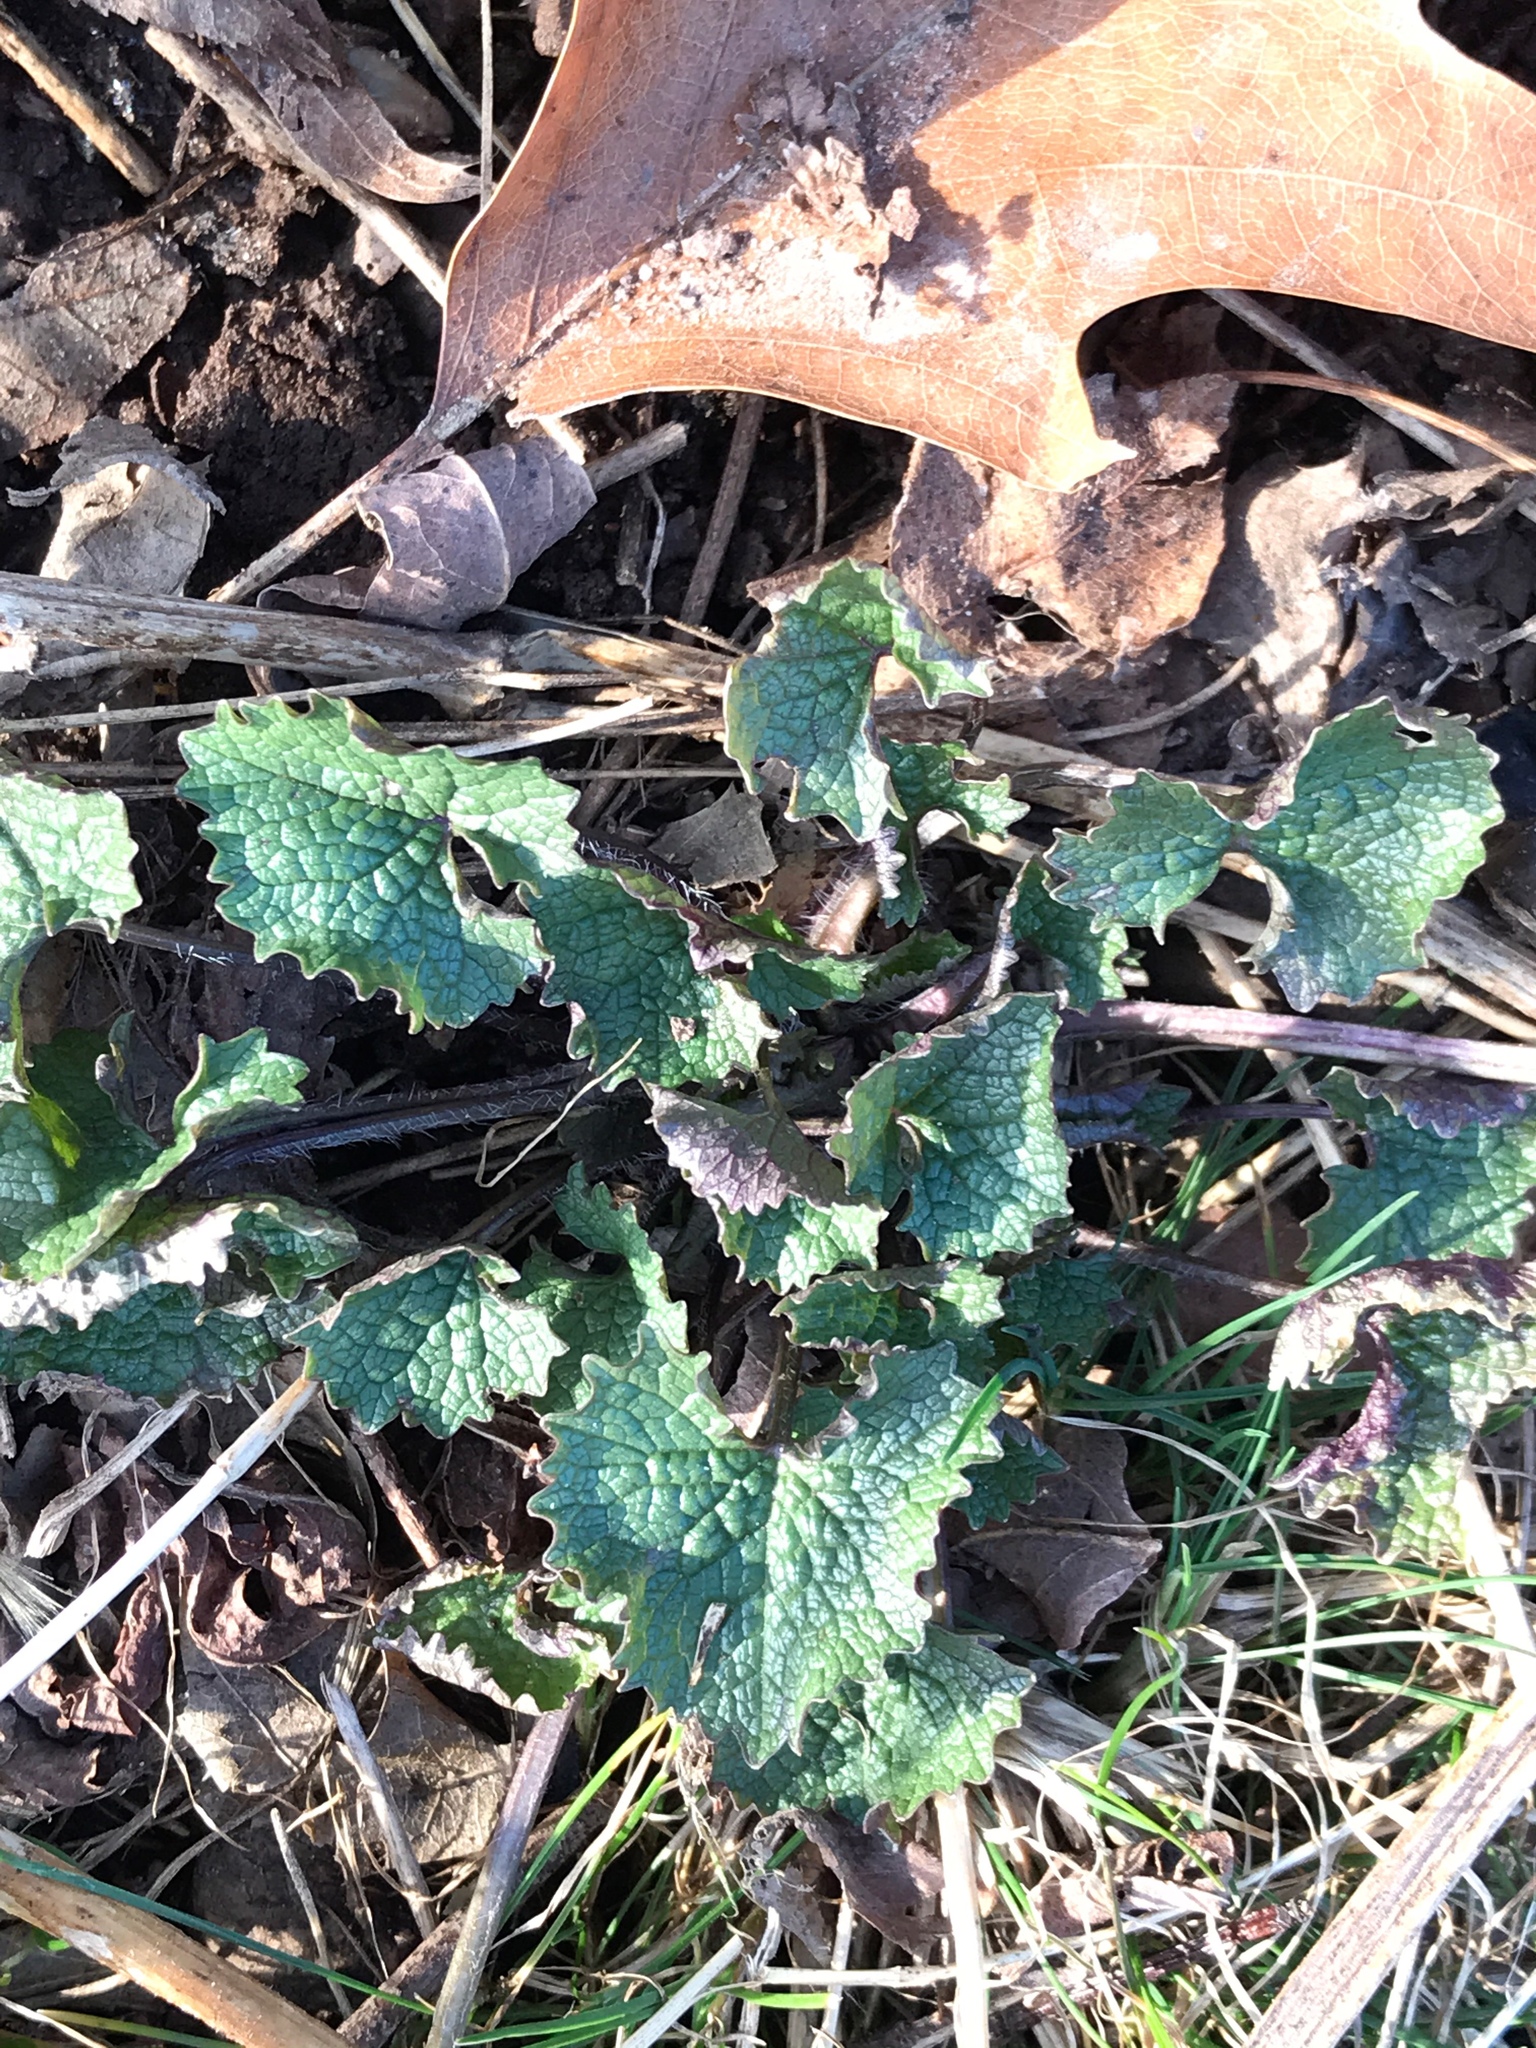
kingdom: Plantae
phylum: Tracheophyta
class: Magnoliopsida
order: Brassicales
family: Brassicaceae
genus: Alliaria
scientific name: Alliaria petiolata
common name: Garlic mustard
